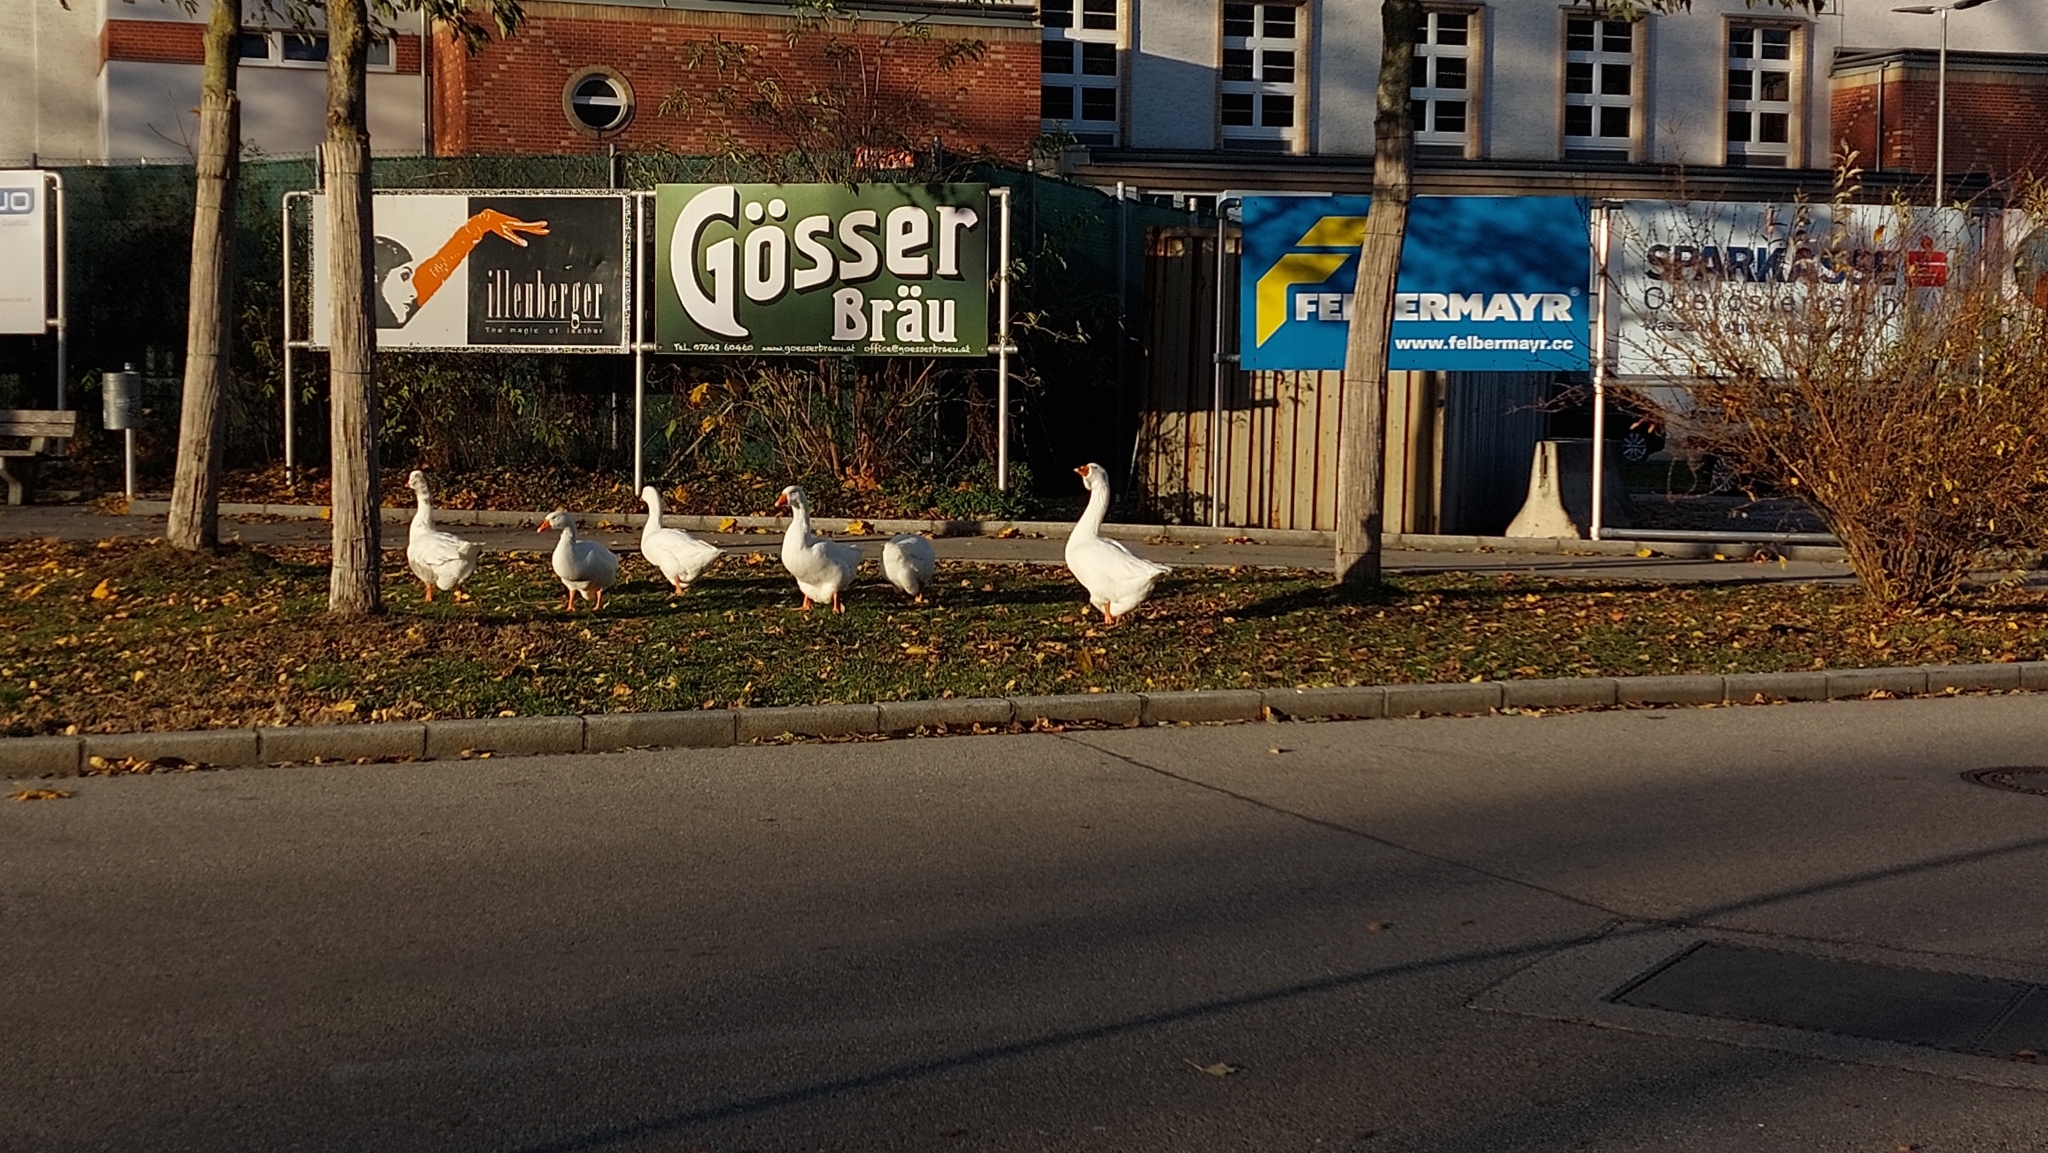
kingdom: Animalia
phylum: Chordata
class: Aves
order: Anseriformes
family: Anatidae
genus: Anser
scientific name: Anser anser
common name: Greylag goose
